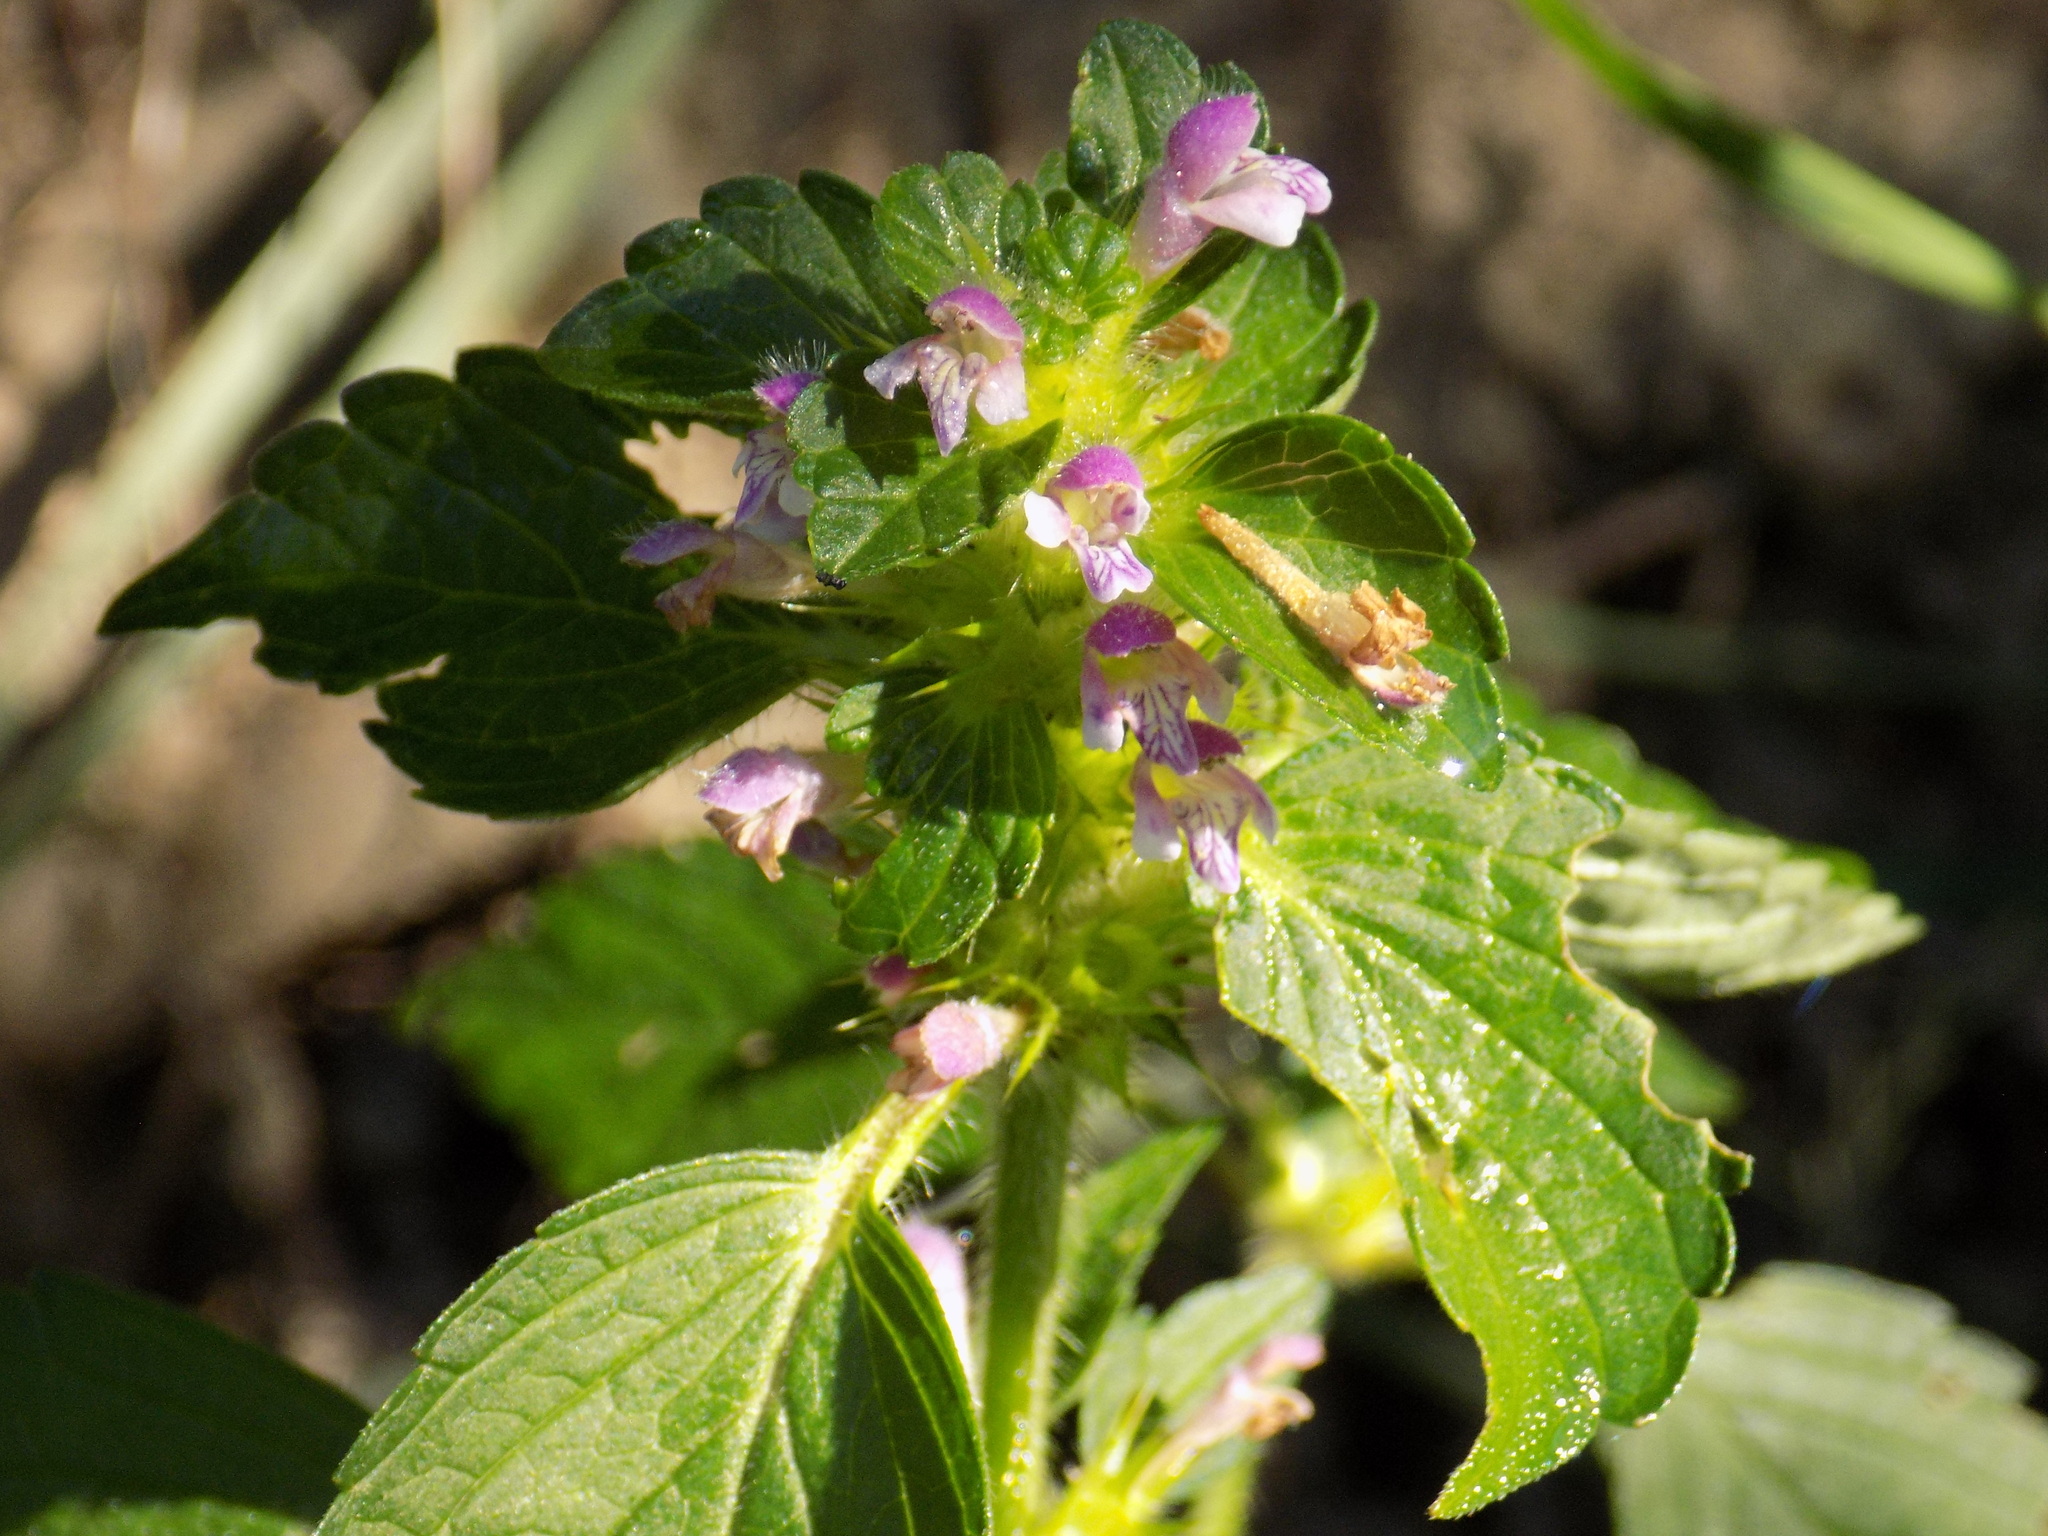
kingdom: Plantae
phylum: Tracheophyta
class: Magnoliopsida
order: Lamiales
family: Lamiaceae
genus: Galeopsis
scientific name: Galeopsis bifida
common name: Bifid hemp-nettle
